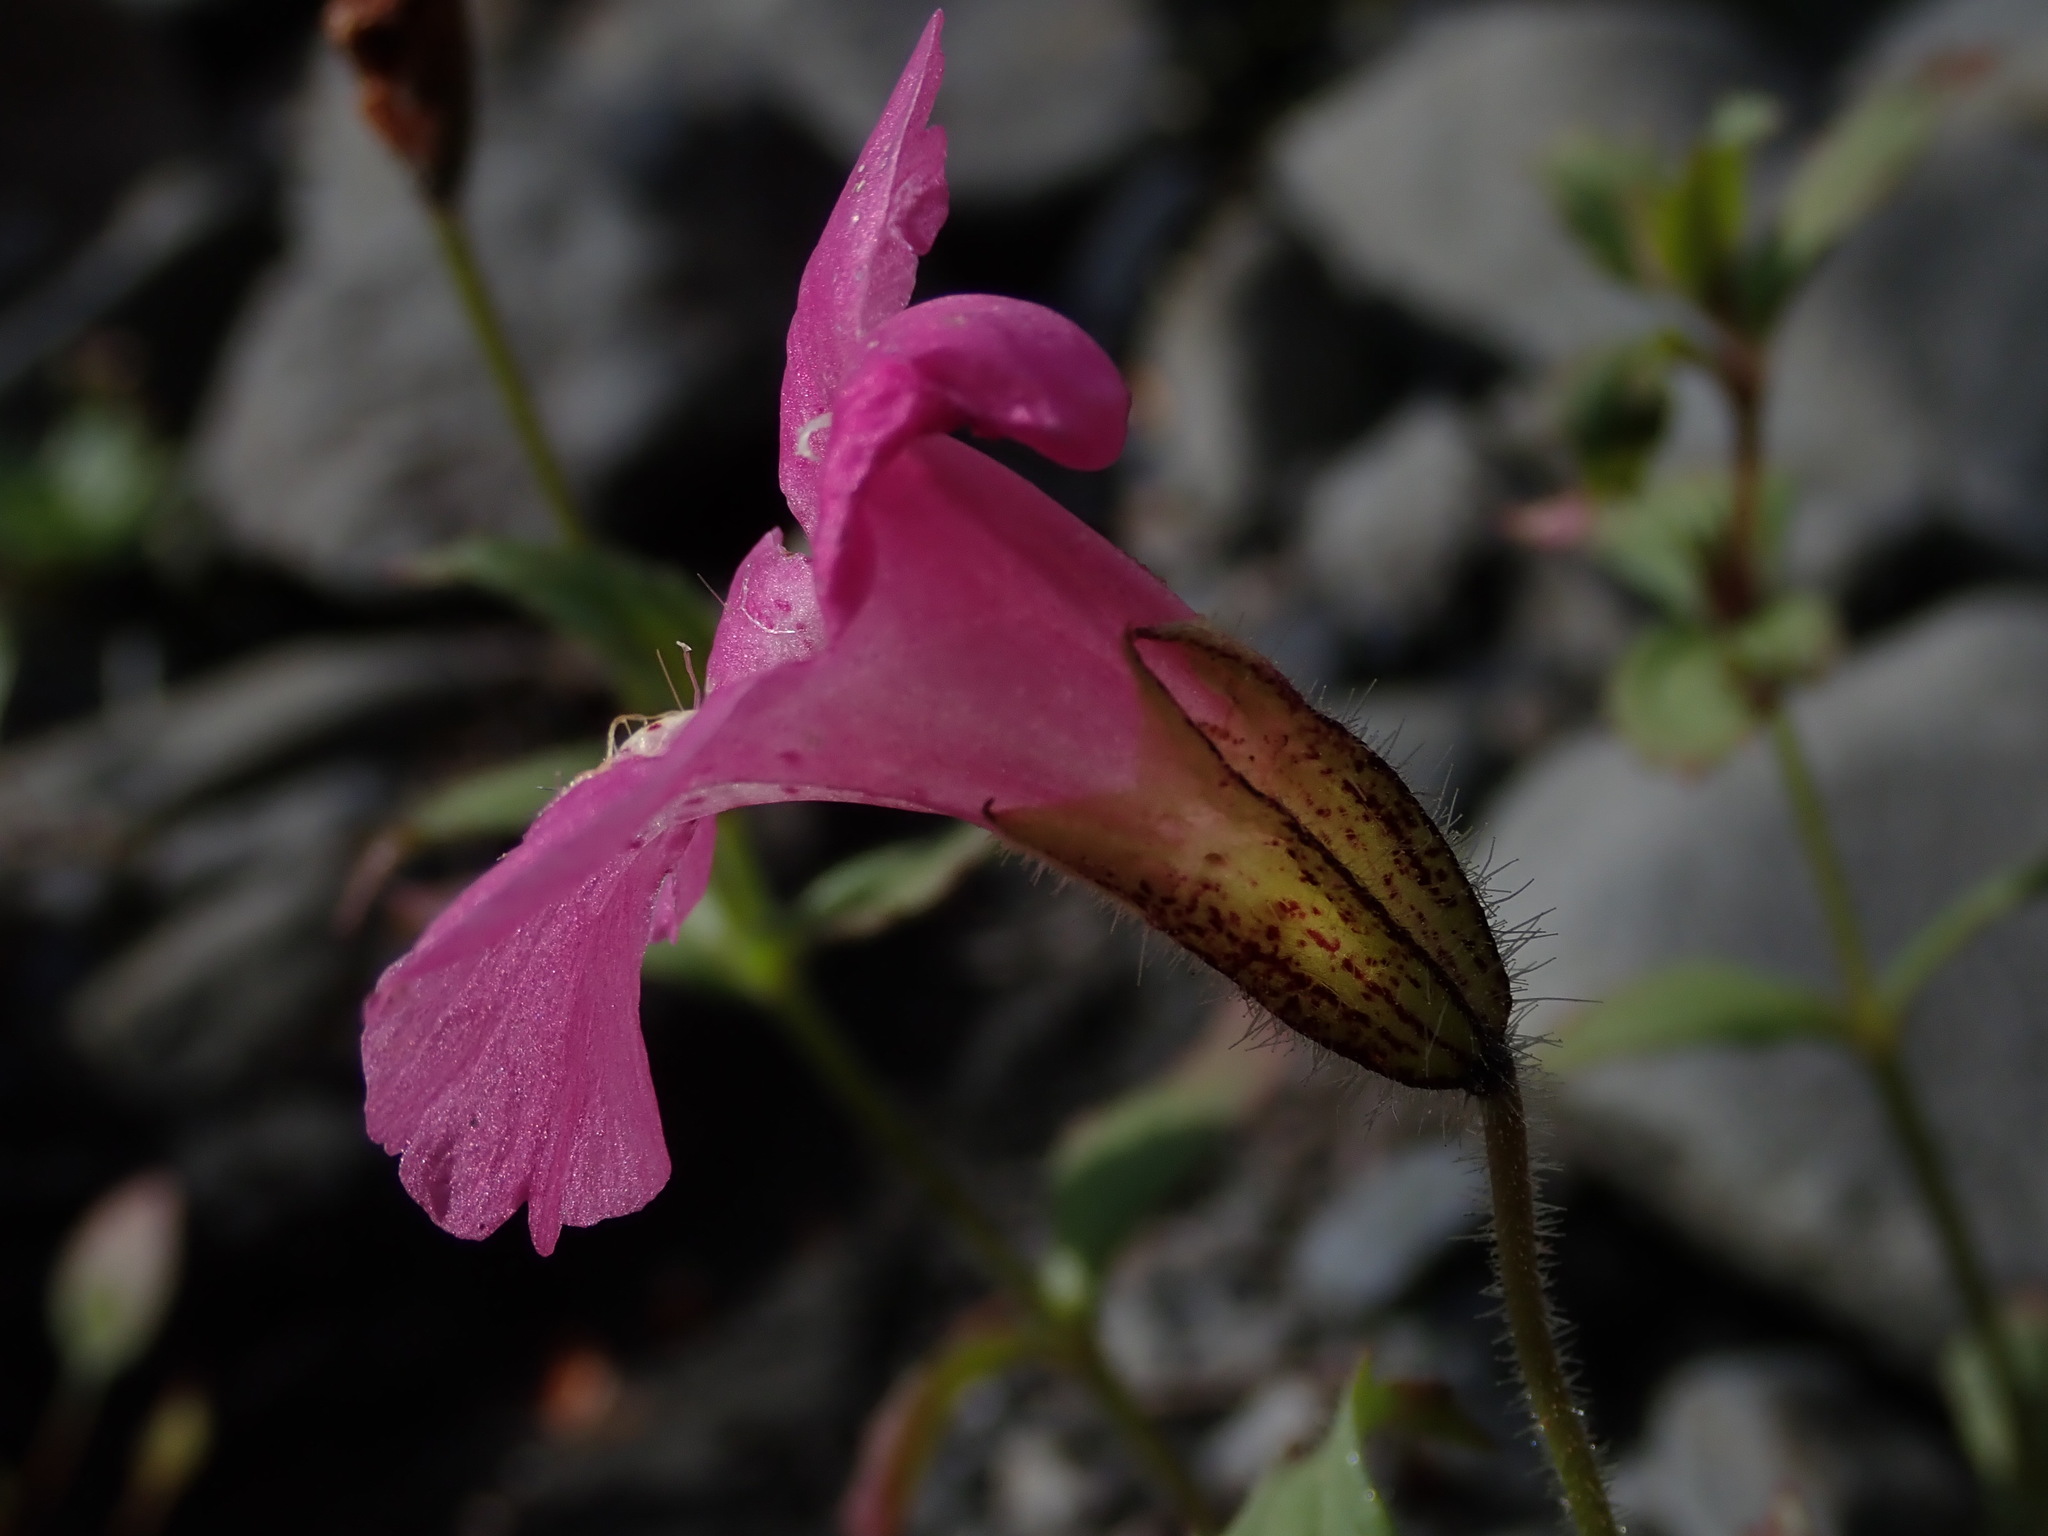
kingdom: Plantae
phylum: Tracheophyta
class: Magnoliopsida
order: Lamiales
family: Phrymaceae
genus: Erythranthe
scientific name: Erythranthe lewisii
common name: Lewis's monkey-flower
